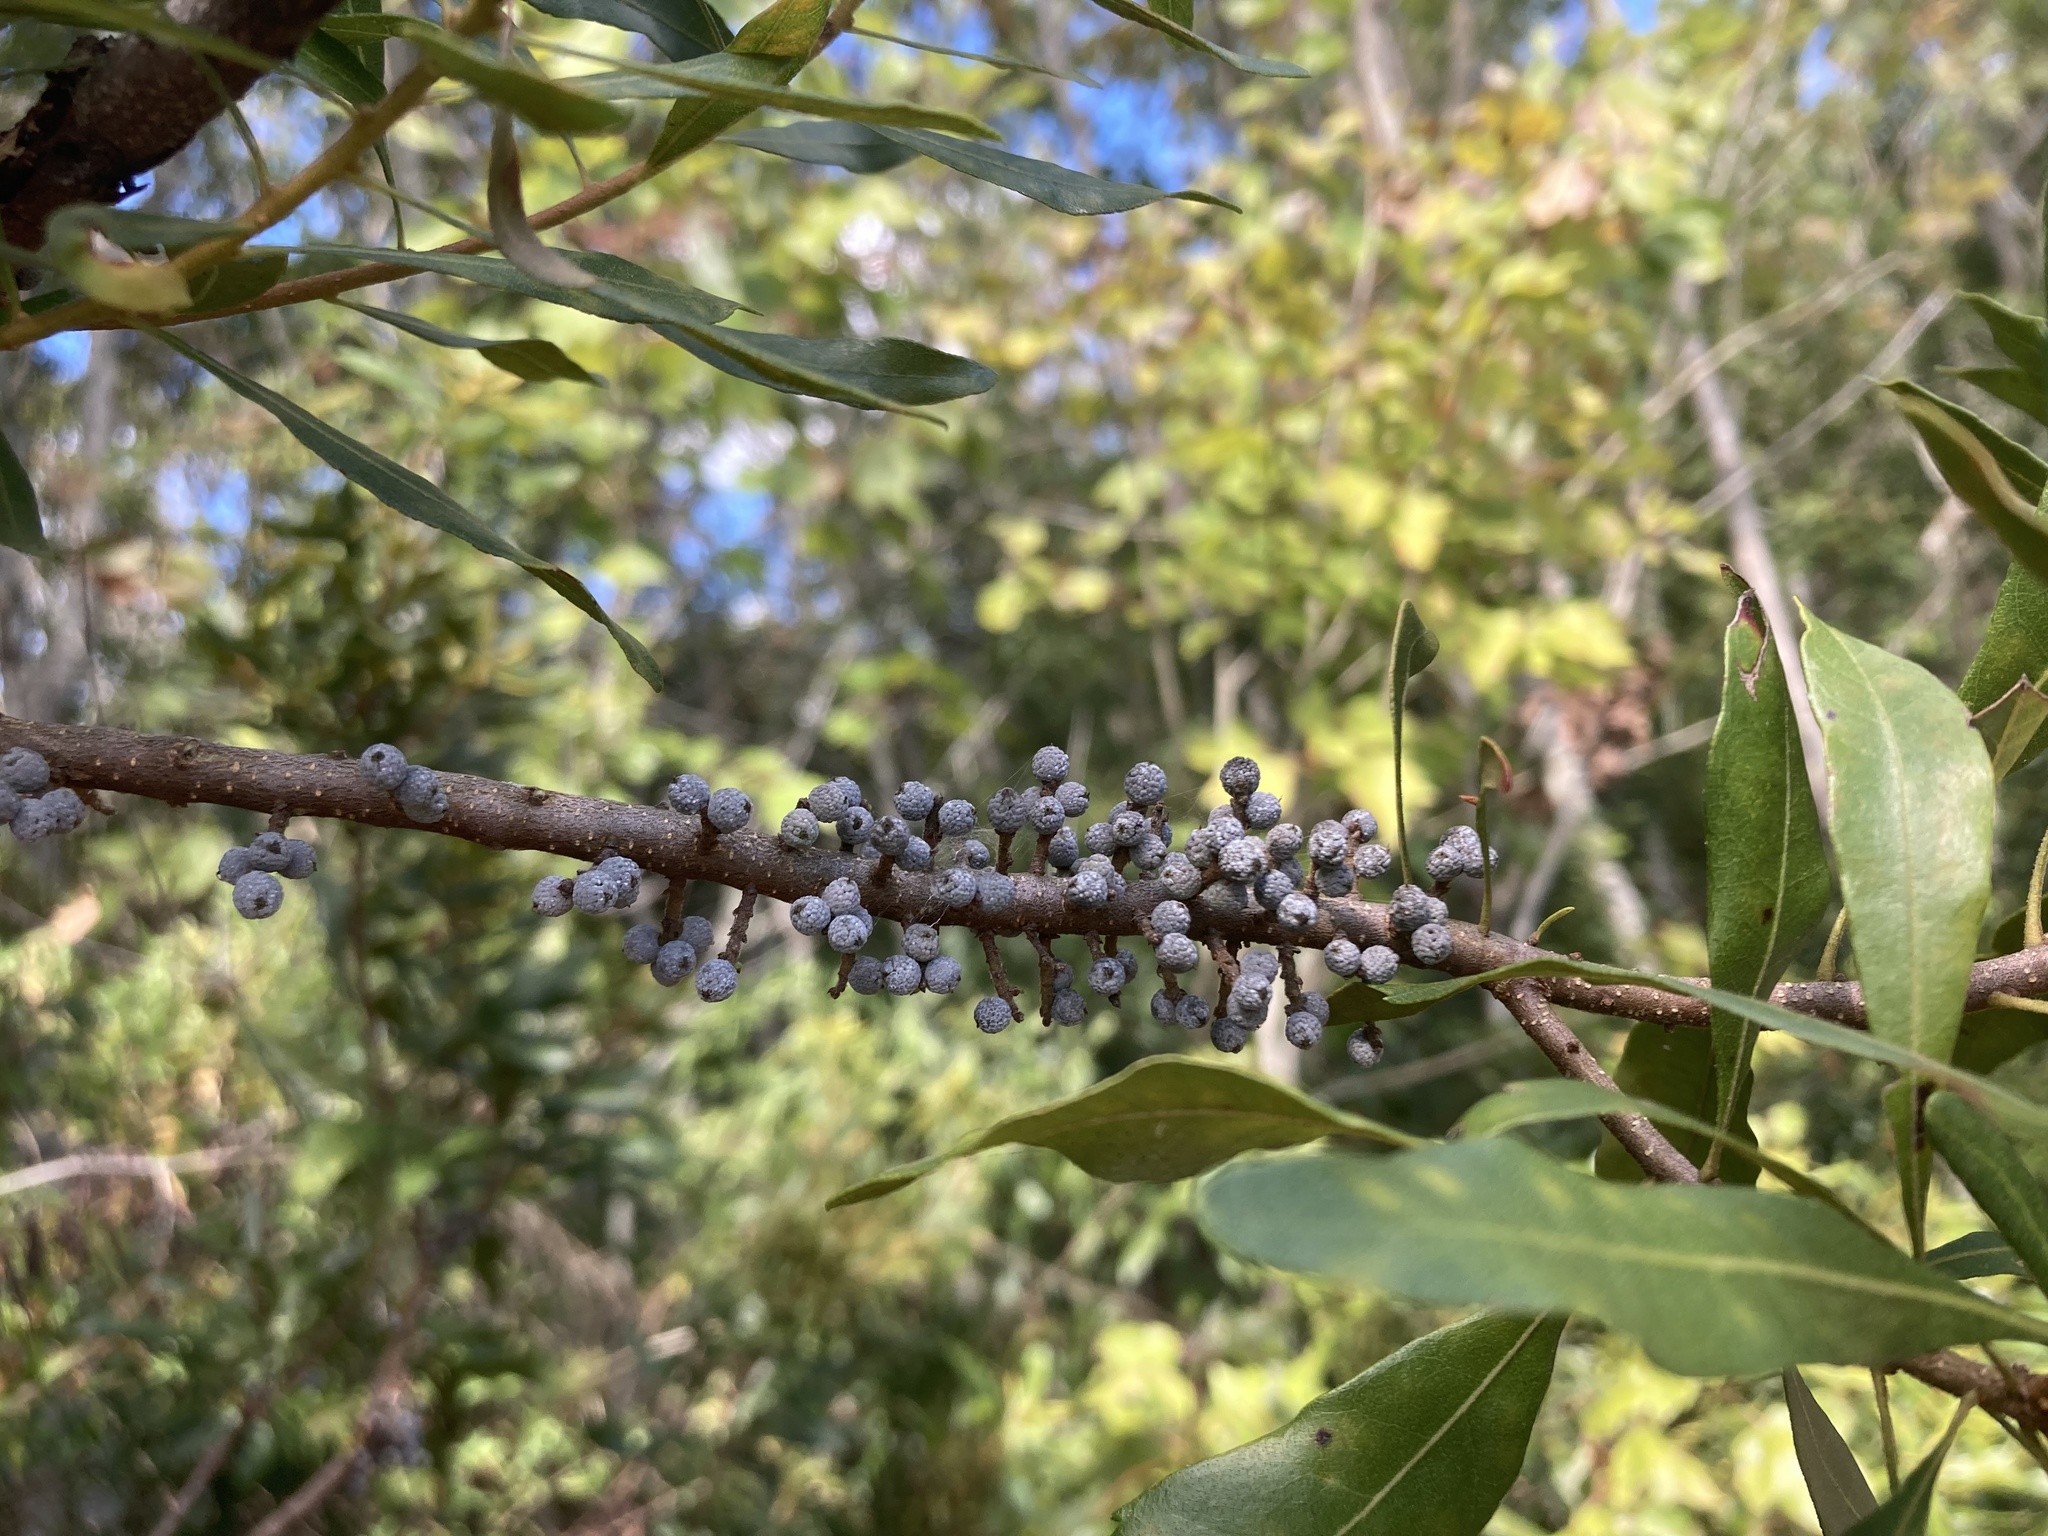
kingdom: Plantae
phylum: Tracheophyta
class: Magnoliopsida
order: Fagales
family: Myricaceae
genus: Morella
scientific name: Morella cerifera
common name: Wax myrtle
